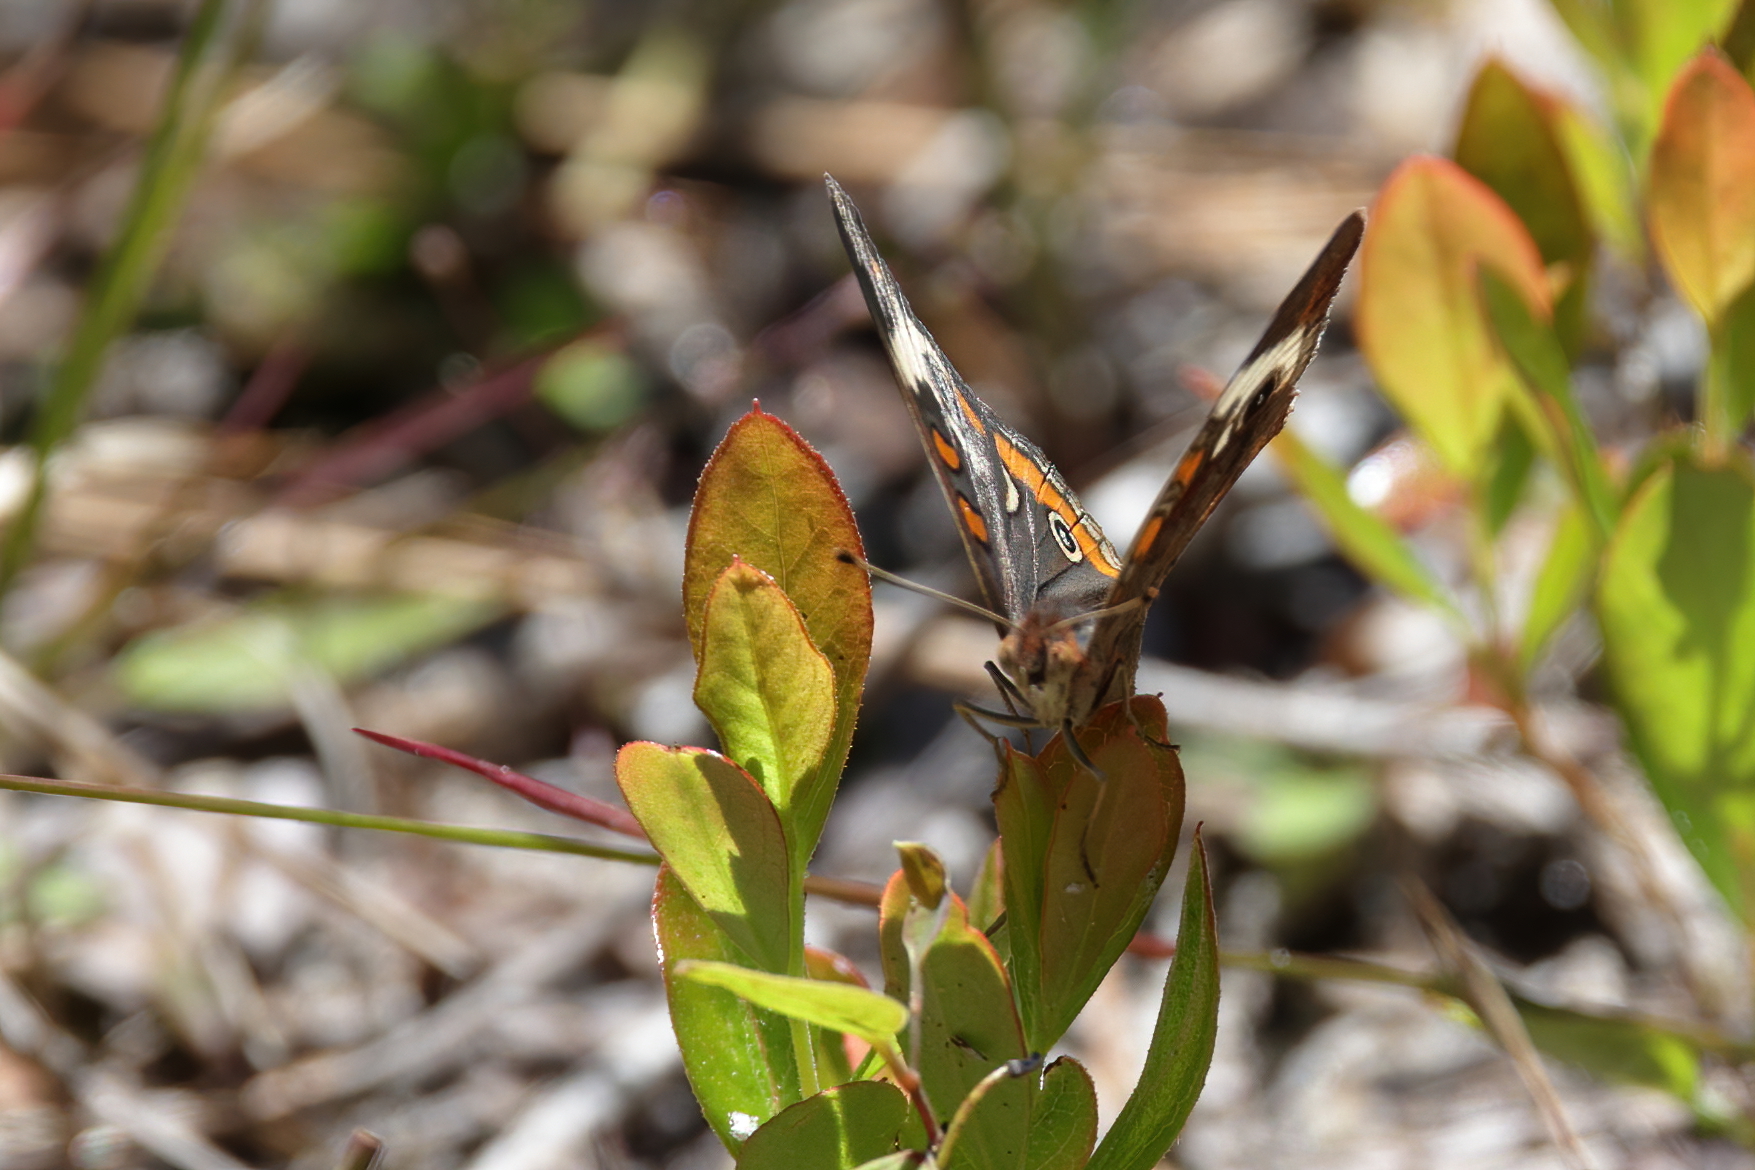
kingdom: Animalia
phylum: Arthropoda
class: Insecta
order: Lepidoptera
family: Nymphalidae
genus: Junonia
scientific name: Junonia coenia
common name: Common buckeye
